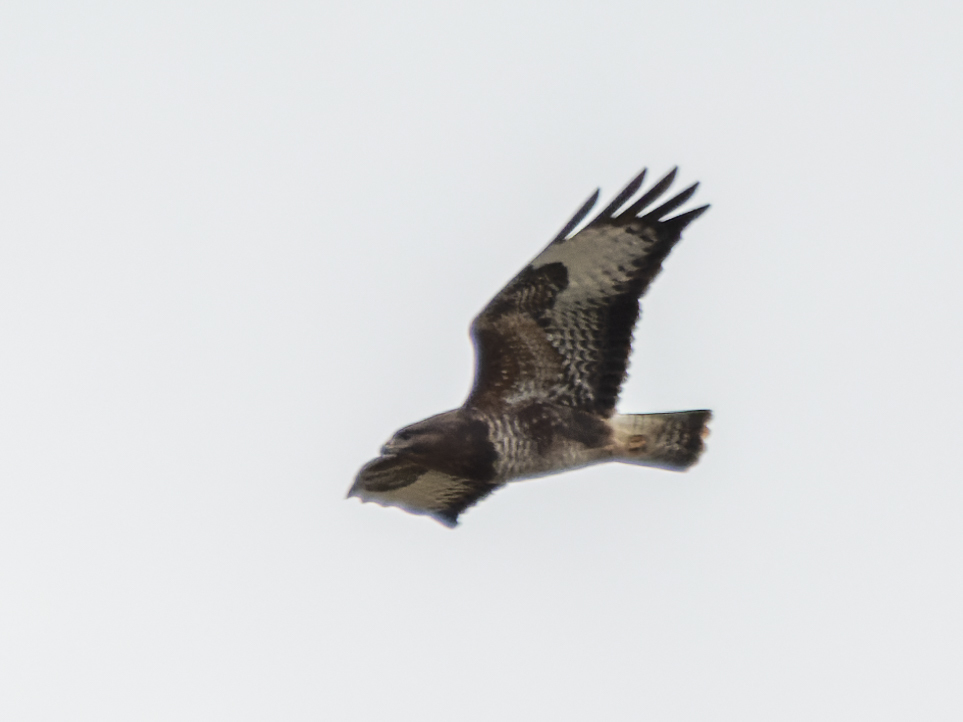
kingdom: Animalia
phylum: Chordata
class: Aves
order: Accipitriformes
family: Accipitridae
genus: Buteo
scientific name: Buteo buteo
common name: Common buzzard
